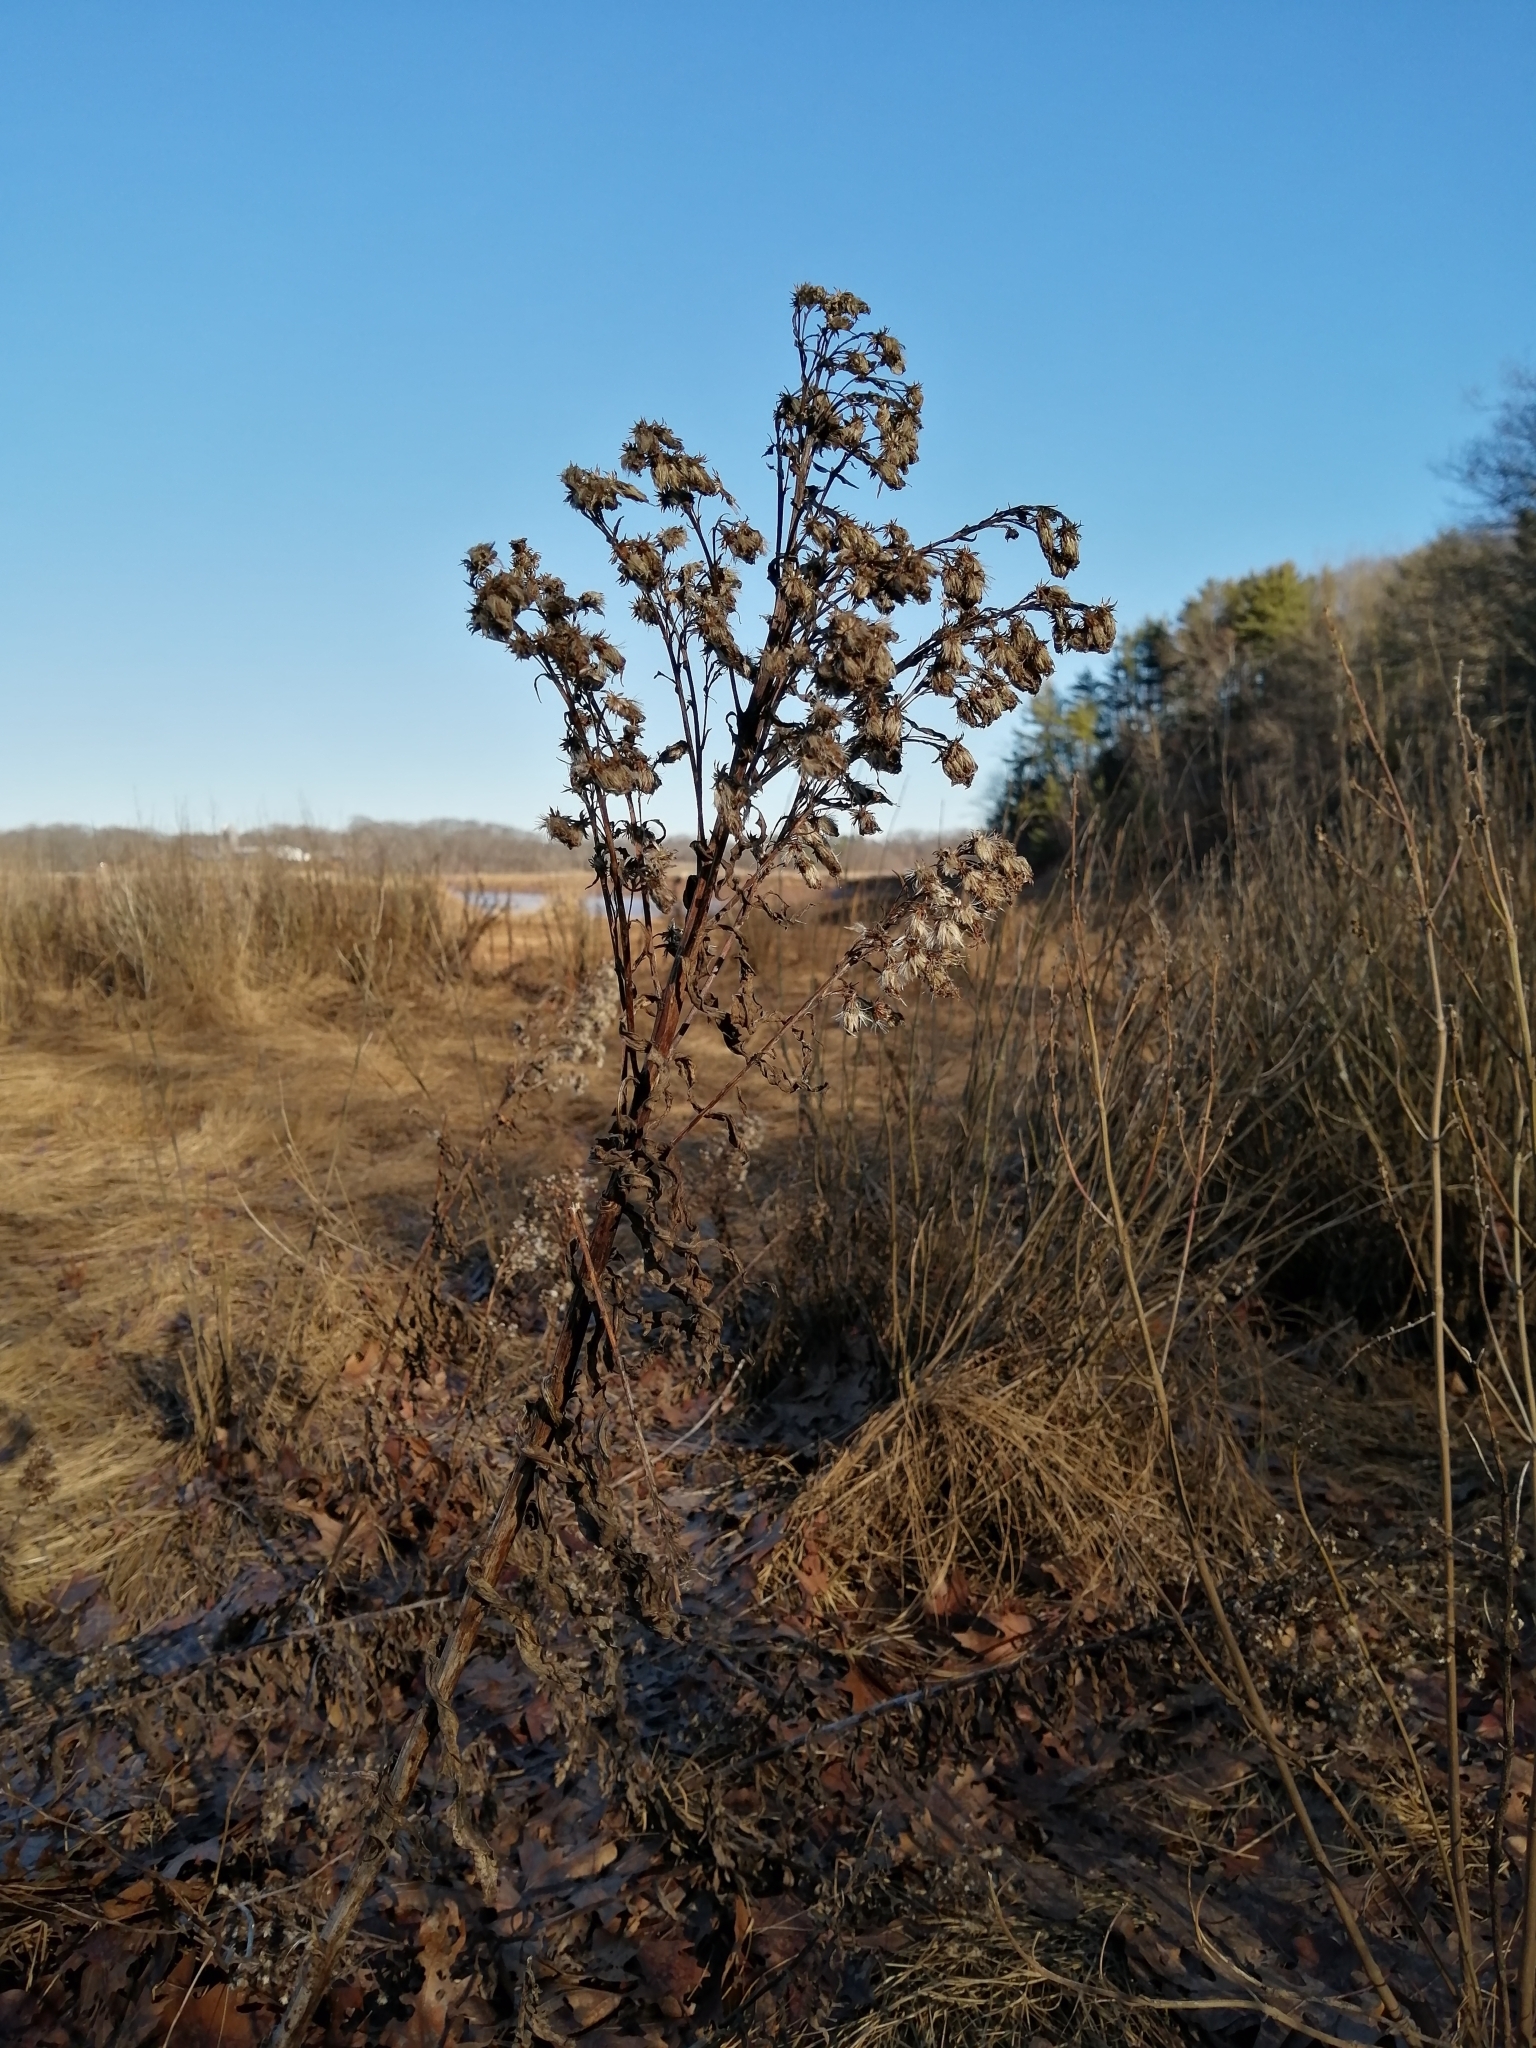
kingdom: Plantae
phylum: Tracheophyta
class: Magnoliopsida
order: Asterales
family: Asteraceae
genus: Solidago
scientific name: Solidago sempervirens
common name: Salt-marsh goldenrod
